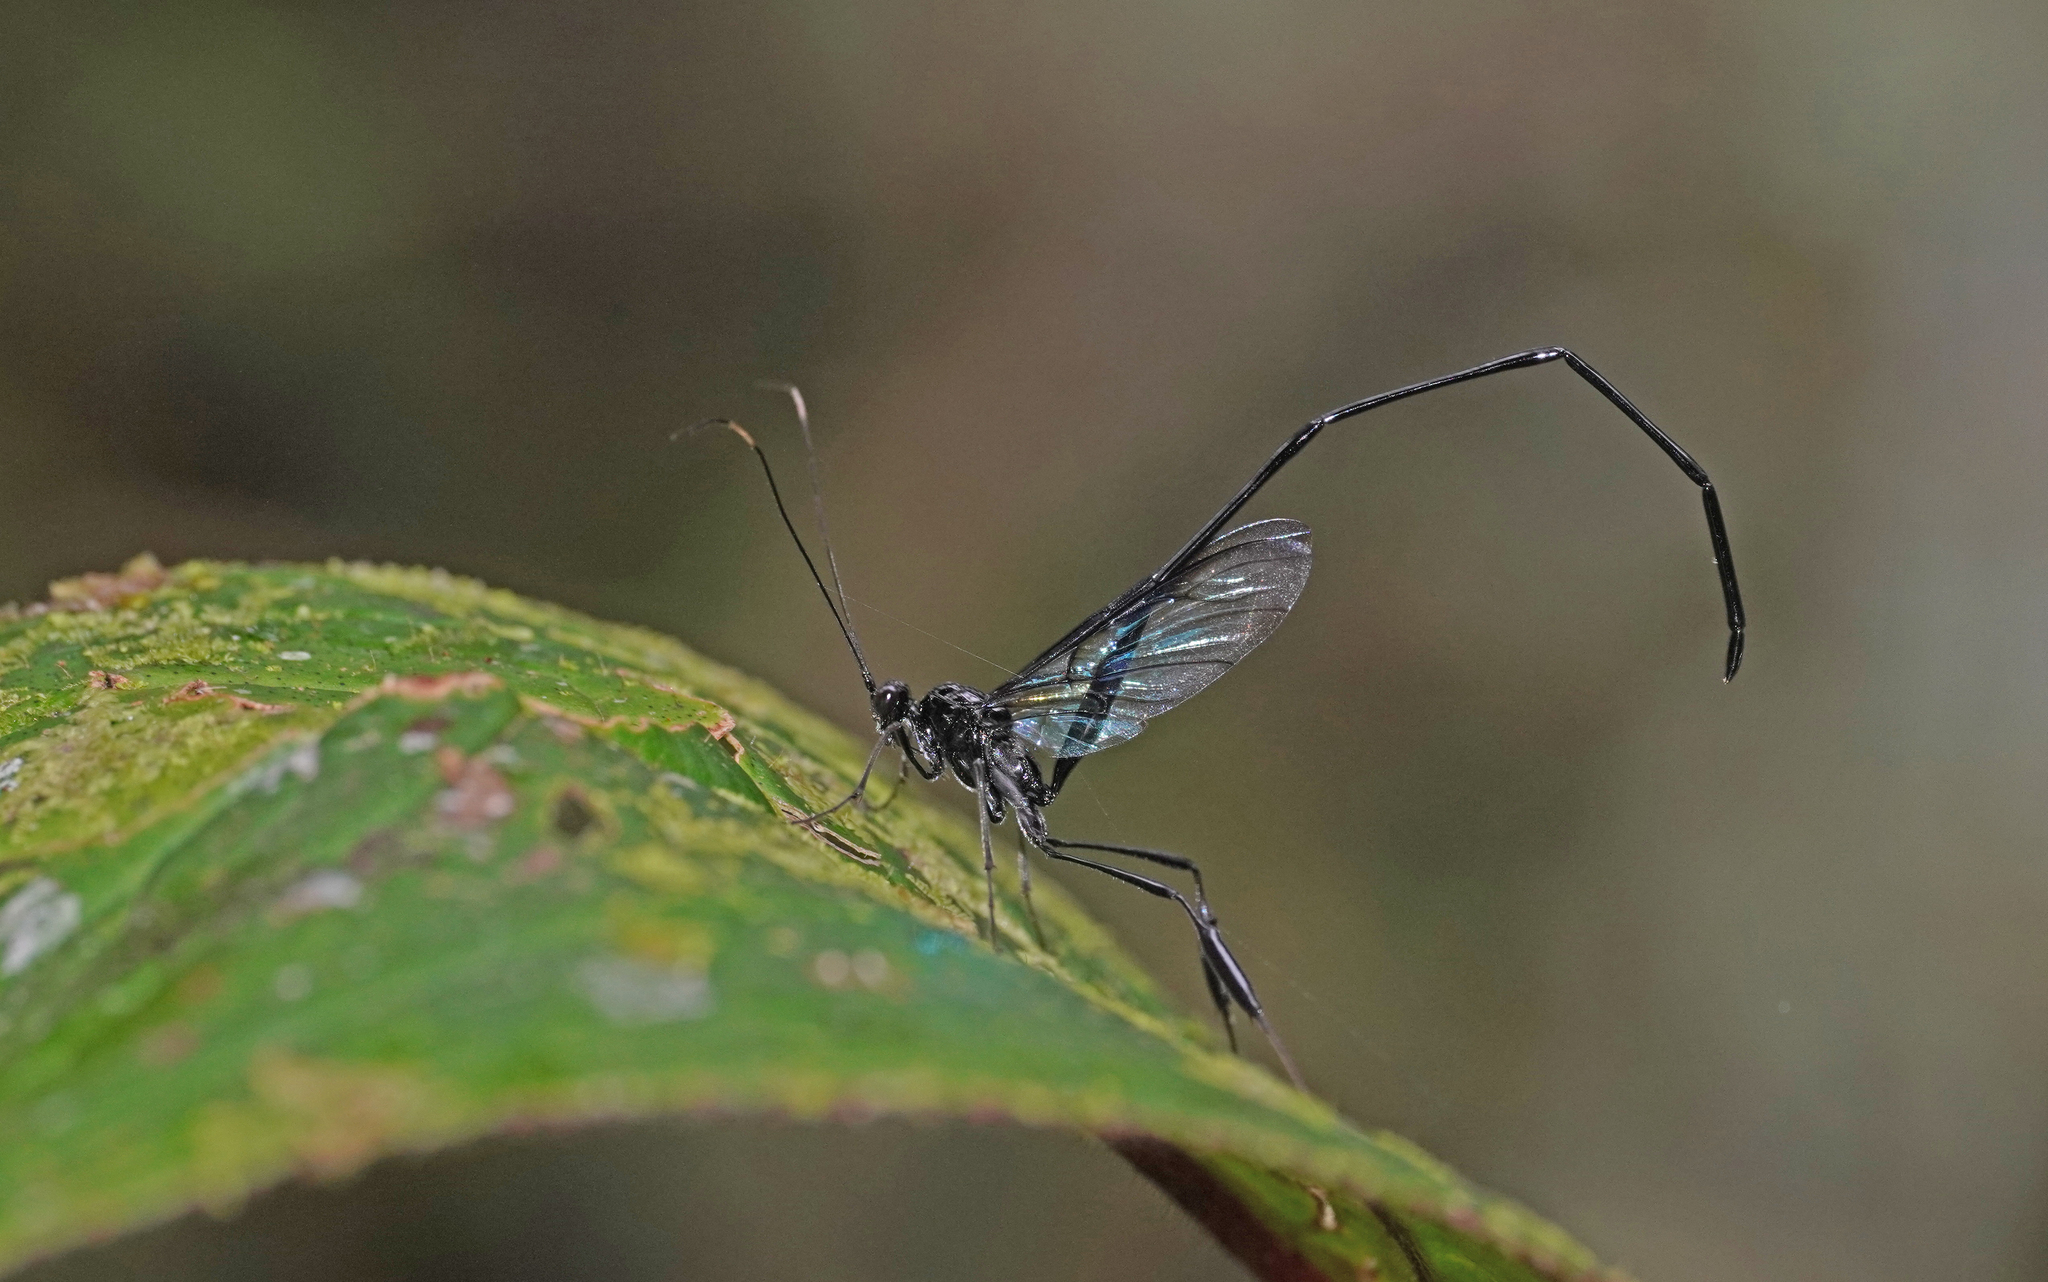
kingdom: Animalia
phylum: Arthropoda
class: Insecta
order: Hymenoptera
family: Pelecinidae
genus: Pelecinus
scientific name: Pelecinus polyturator
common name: American pelecinid wasp
